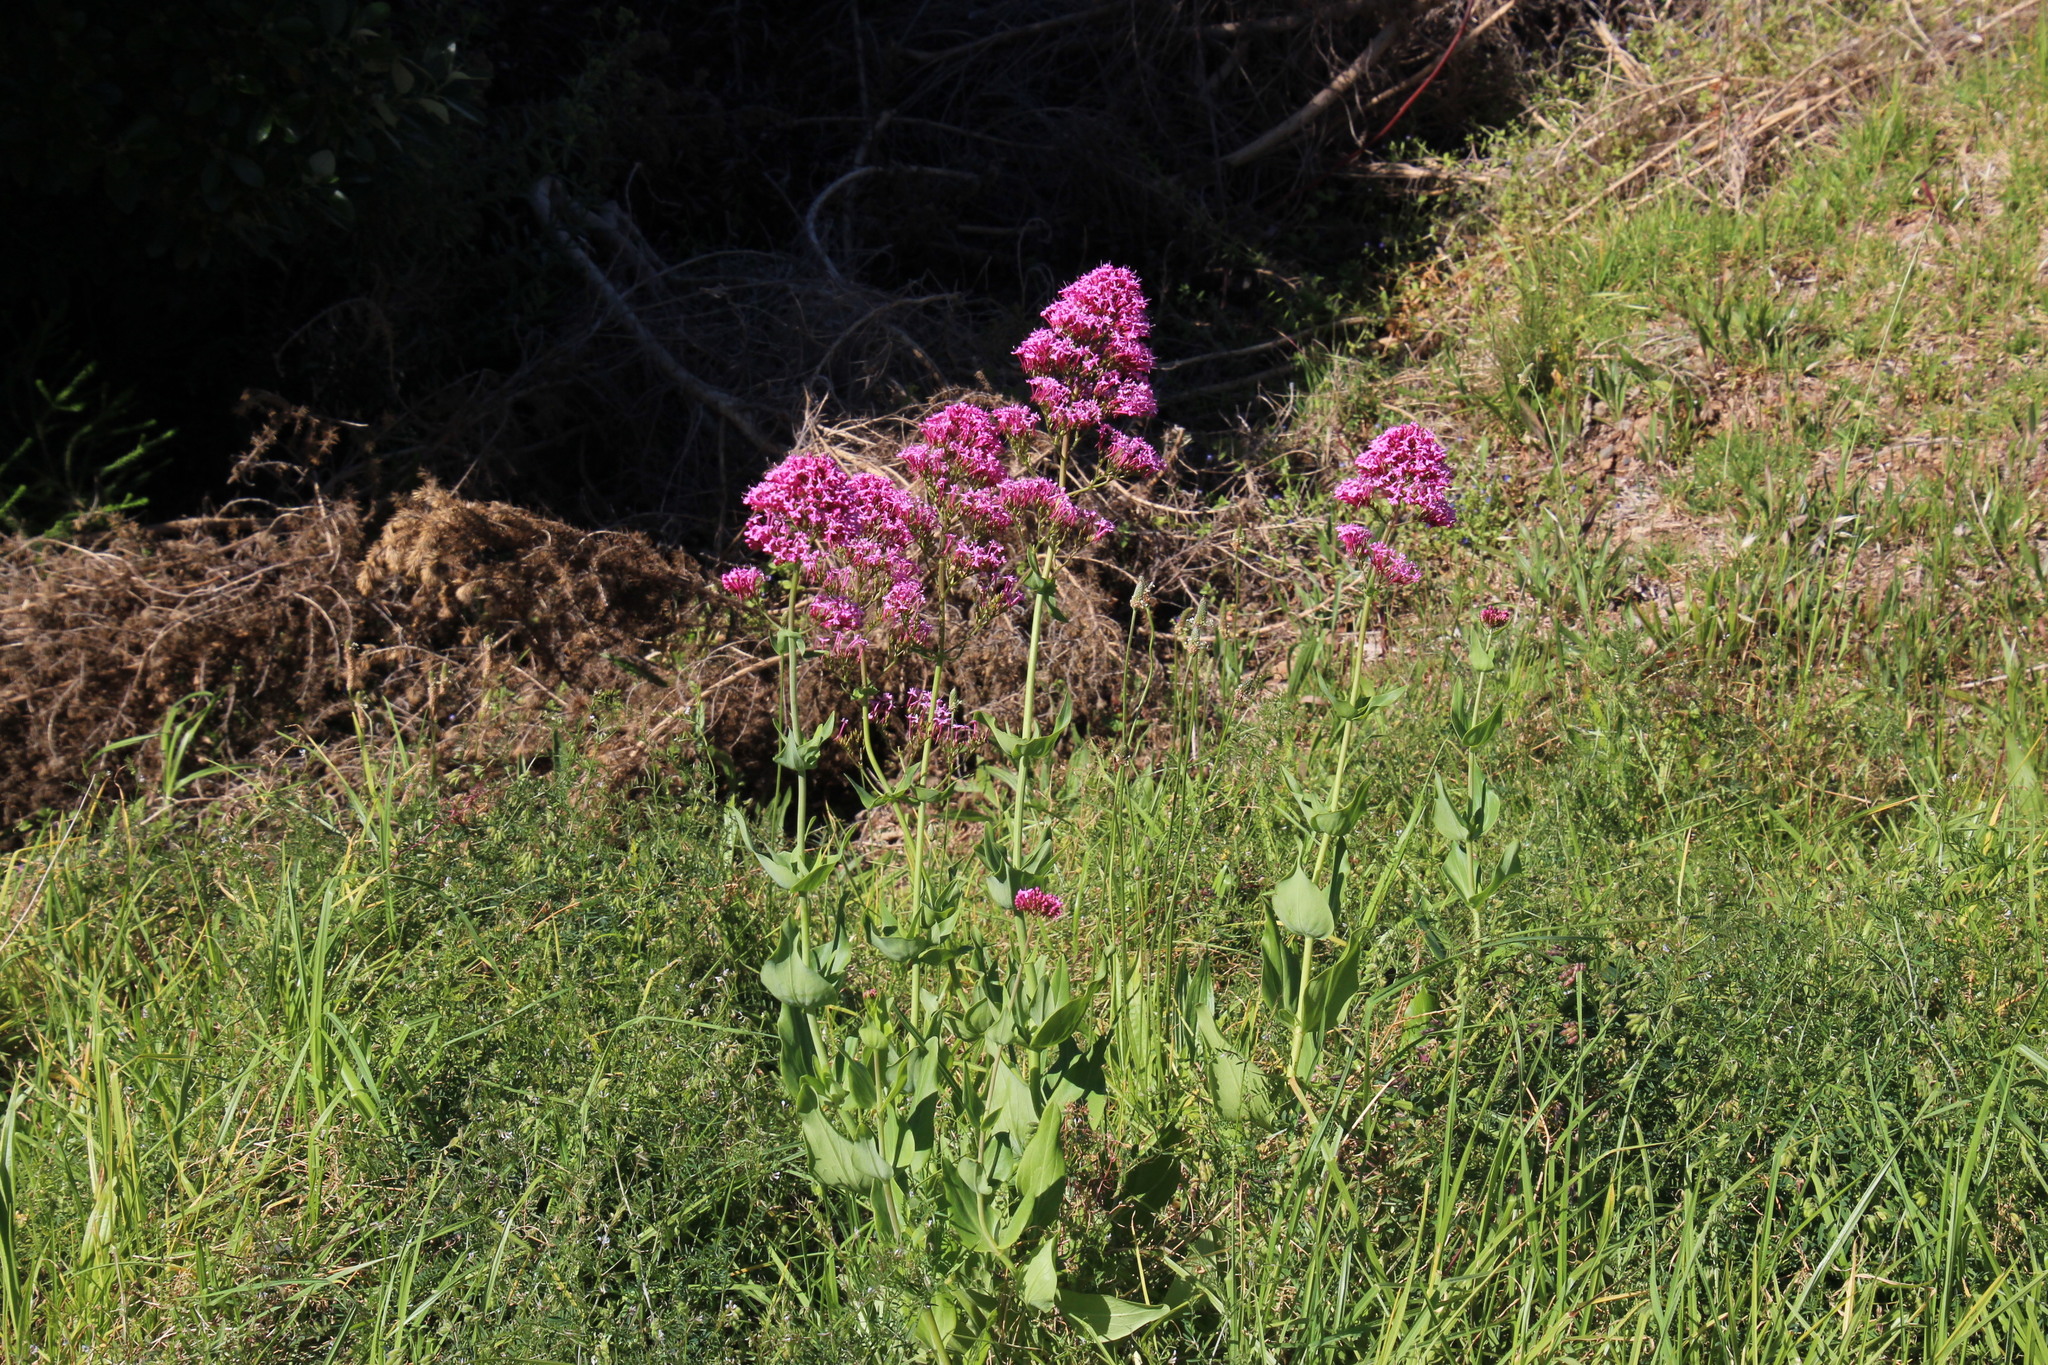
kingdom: Plantae
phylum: Tracheophyta
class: Magnoliopsida
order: Dipsacales
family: Caprifoliaceae
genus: Centranthus
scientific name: Centranthus ruber
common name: Red valerian
